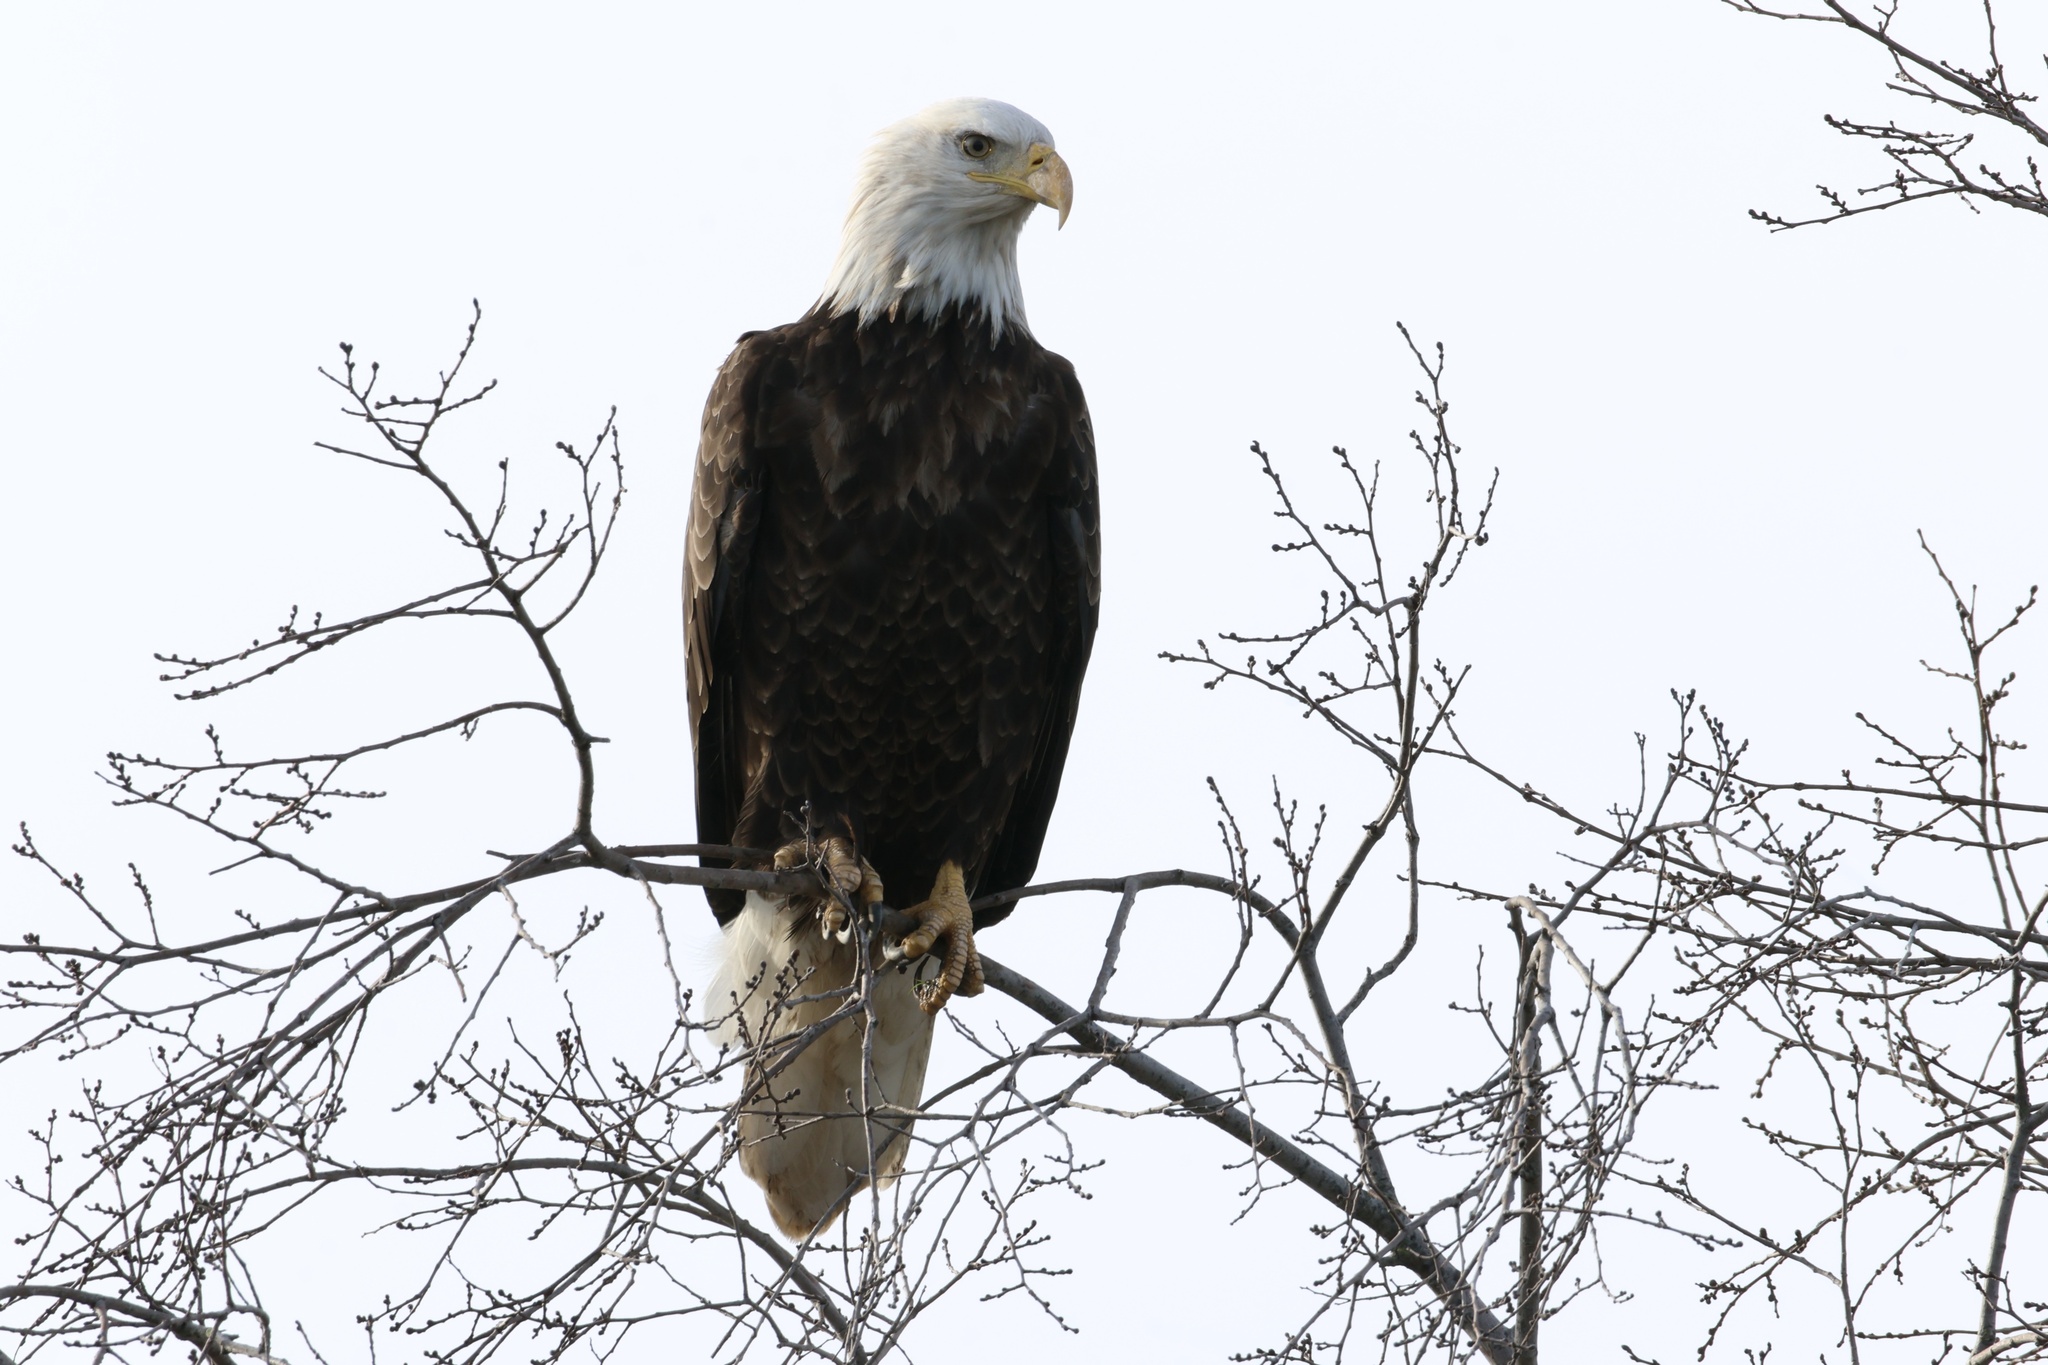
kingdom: Animalia
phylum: Chordata
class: Aves
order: Accipitriformes
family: Accipitridae
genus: Haliaeetus
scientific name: Haliaeetus leucocephalus
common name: Bald eagle
